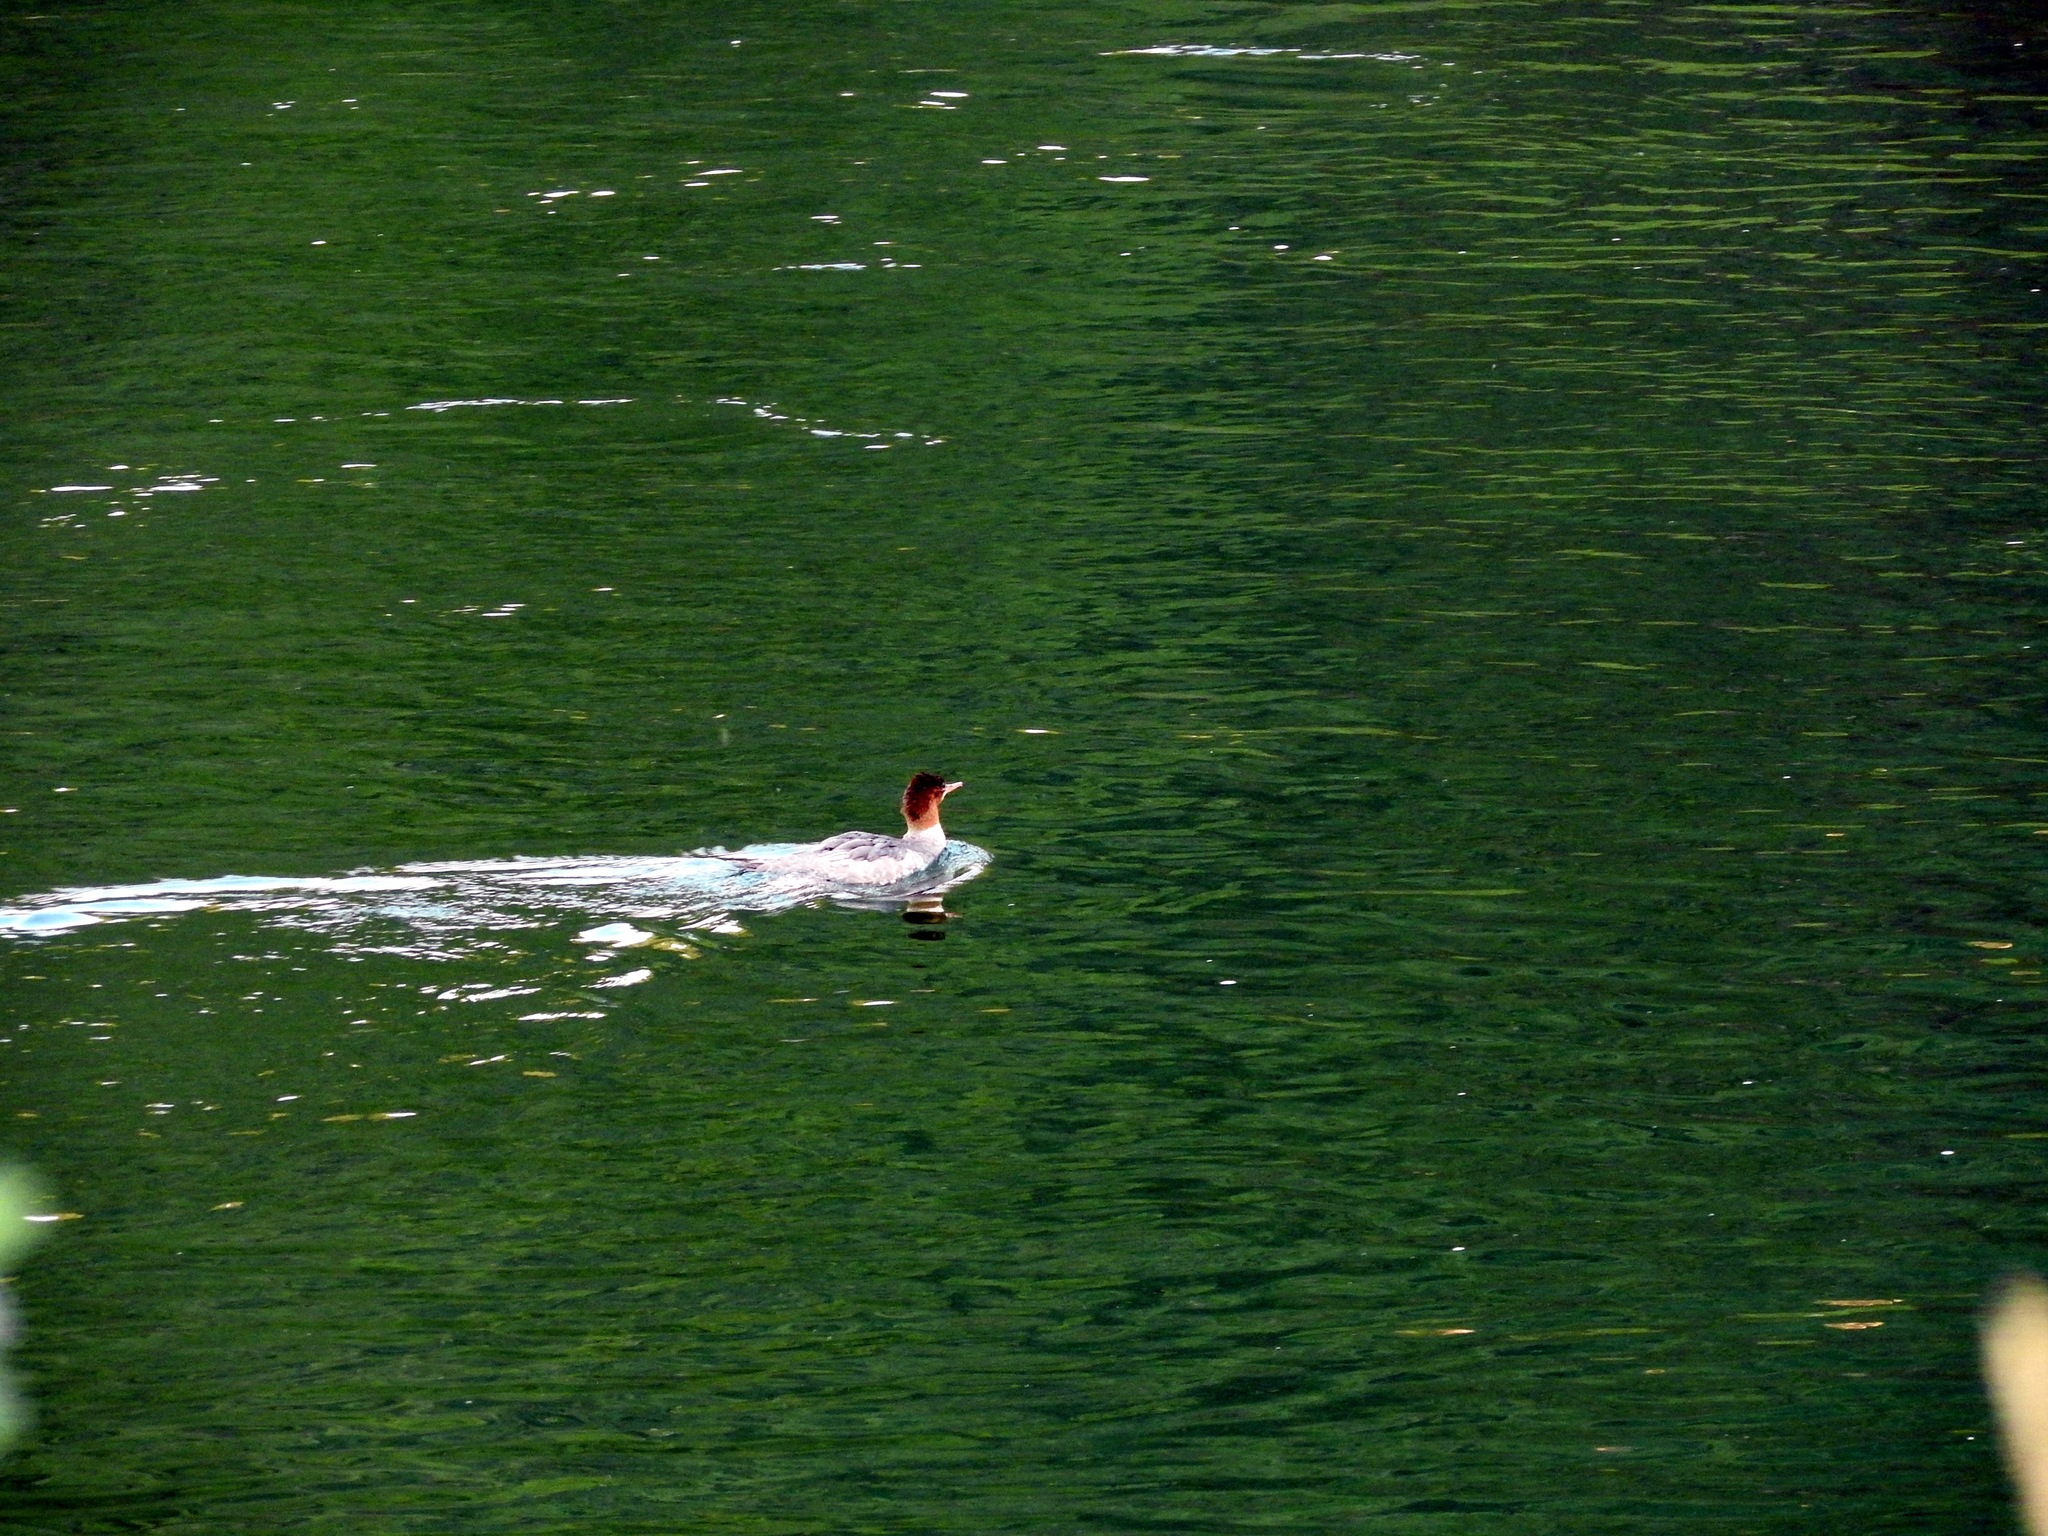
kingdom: Animalia
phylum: Chordata
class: Aves
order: Anseriformes
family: Anatidae
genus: Mergus
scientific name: Mergus merganser
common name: Common merganser
